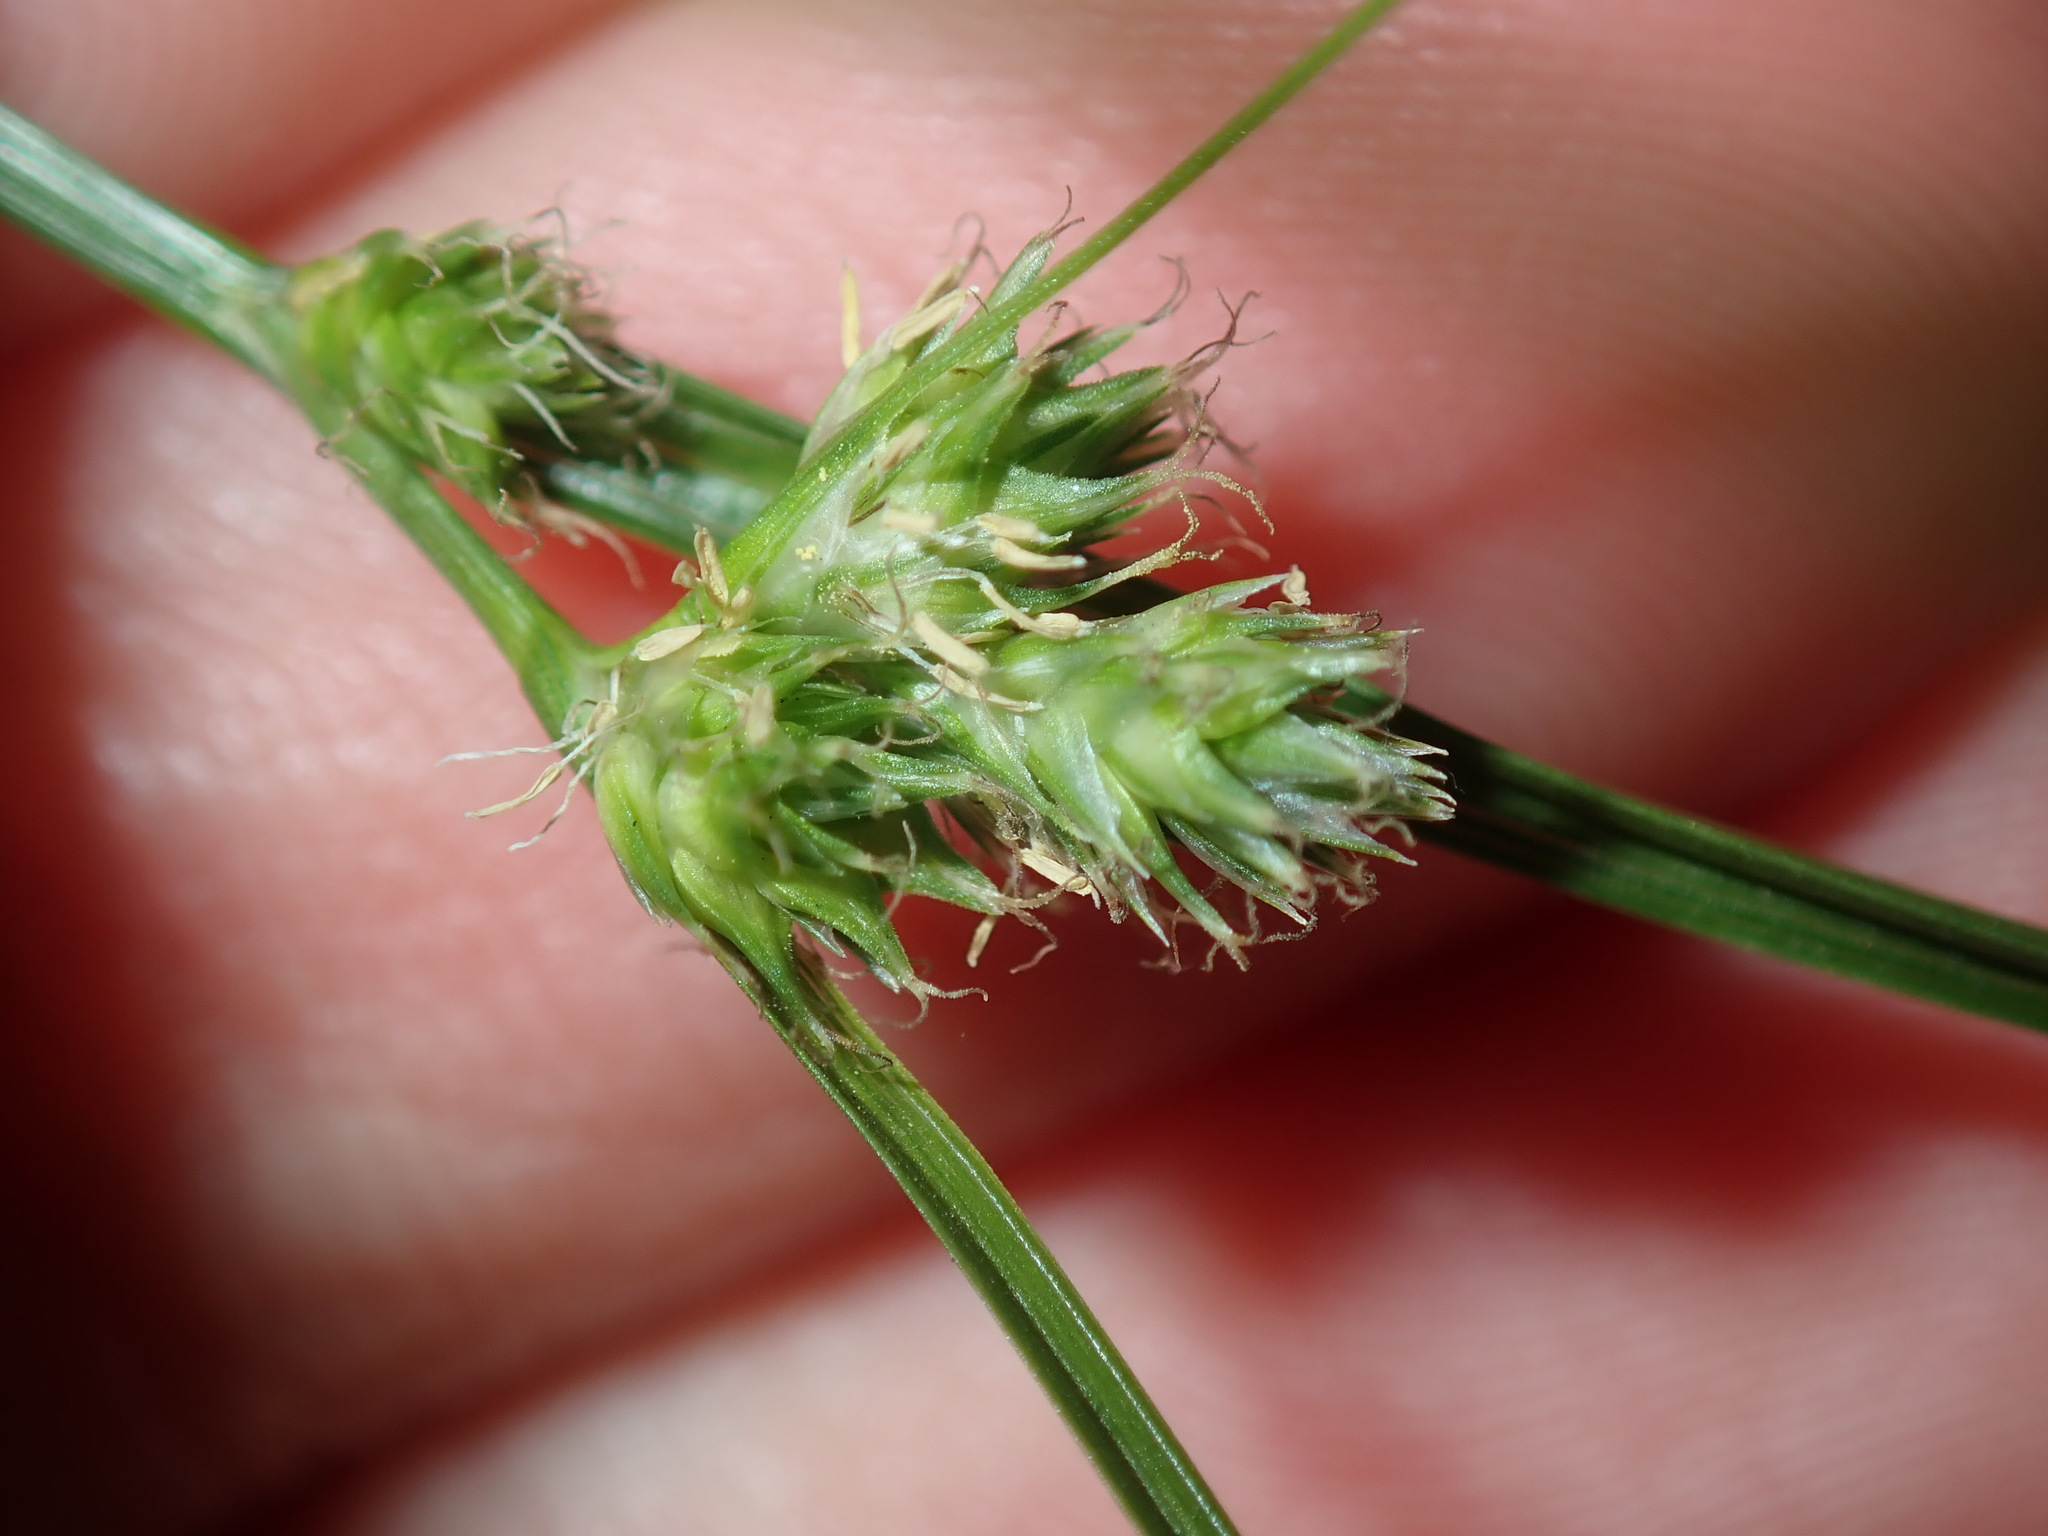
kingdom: Plantae
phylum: Tracheophyta
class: Liliopsida
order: Poales
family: Cyperaceae
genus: Carex
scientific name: Carex inversa
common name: Knob sedge
